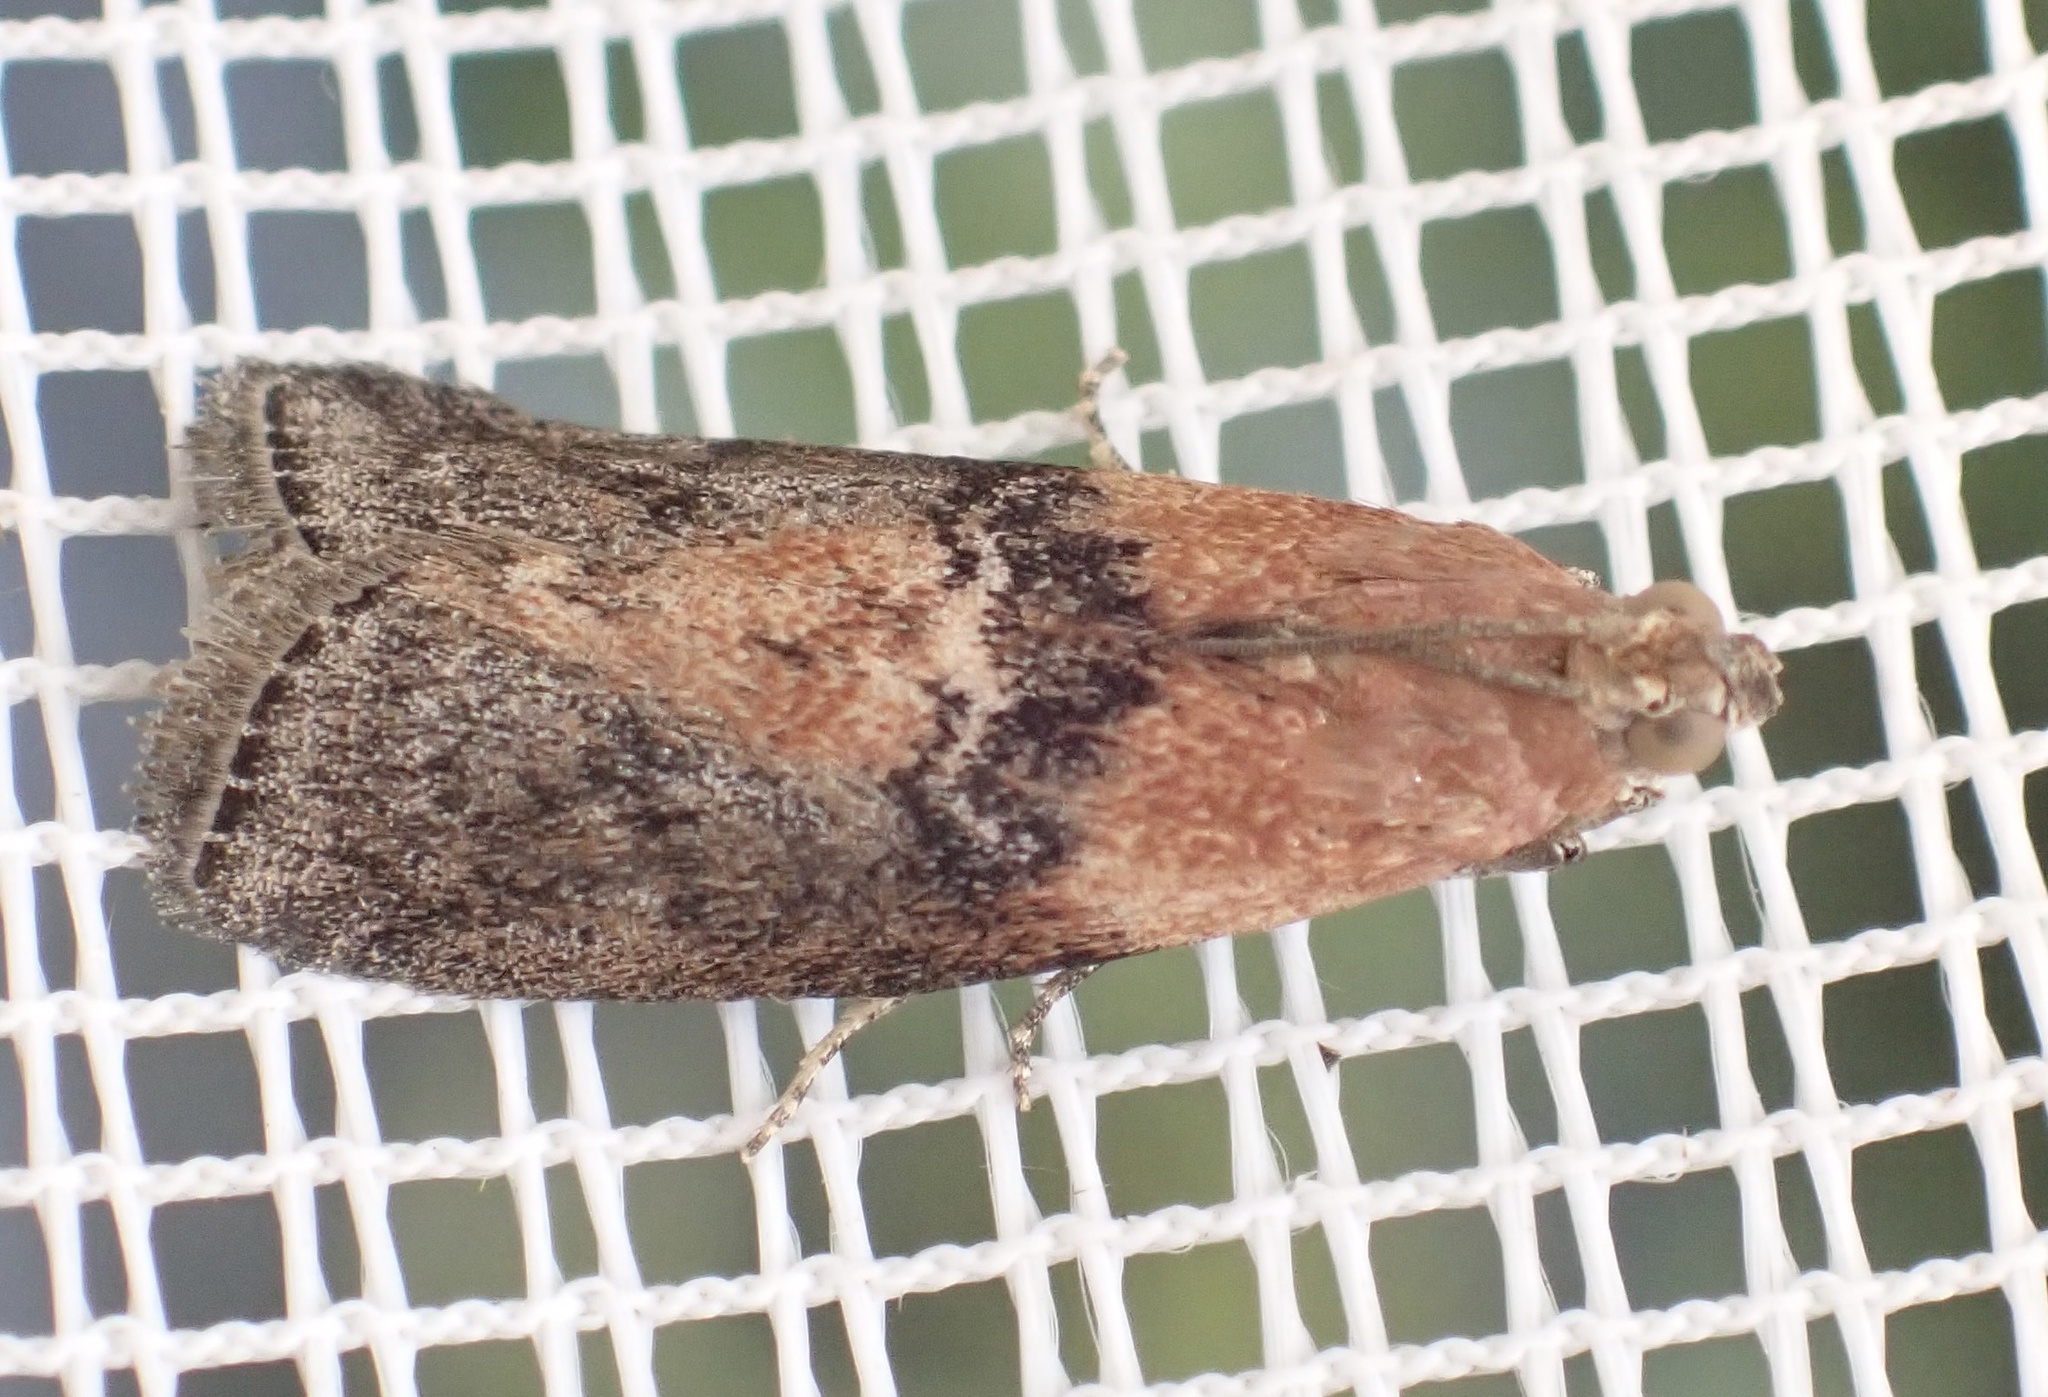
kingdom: Animalia
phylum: Arthropoda
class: Insecta
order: Lepidoptera
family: Pyralidae
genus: Sciota
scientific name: Sciota adelphella
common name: Willow knot-horn
